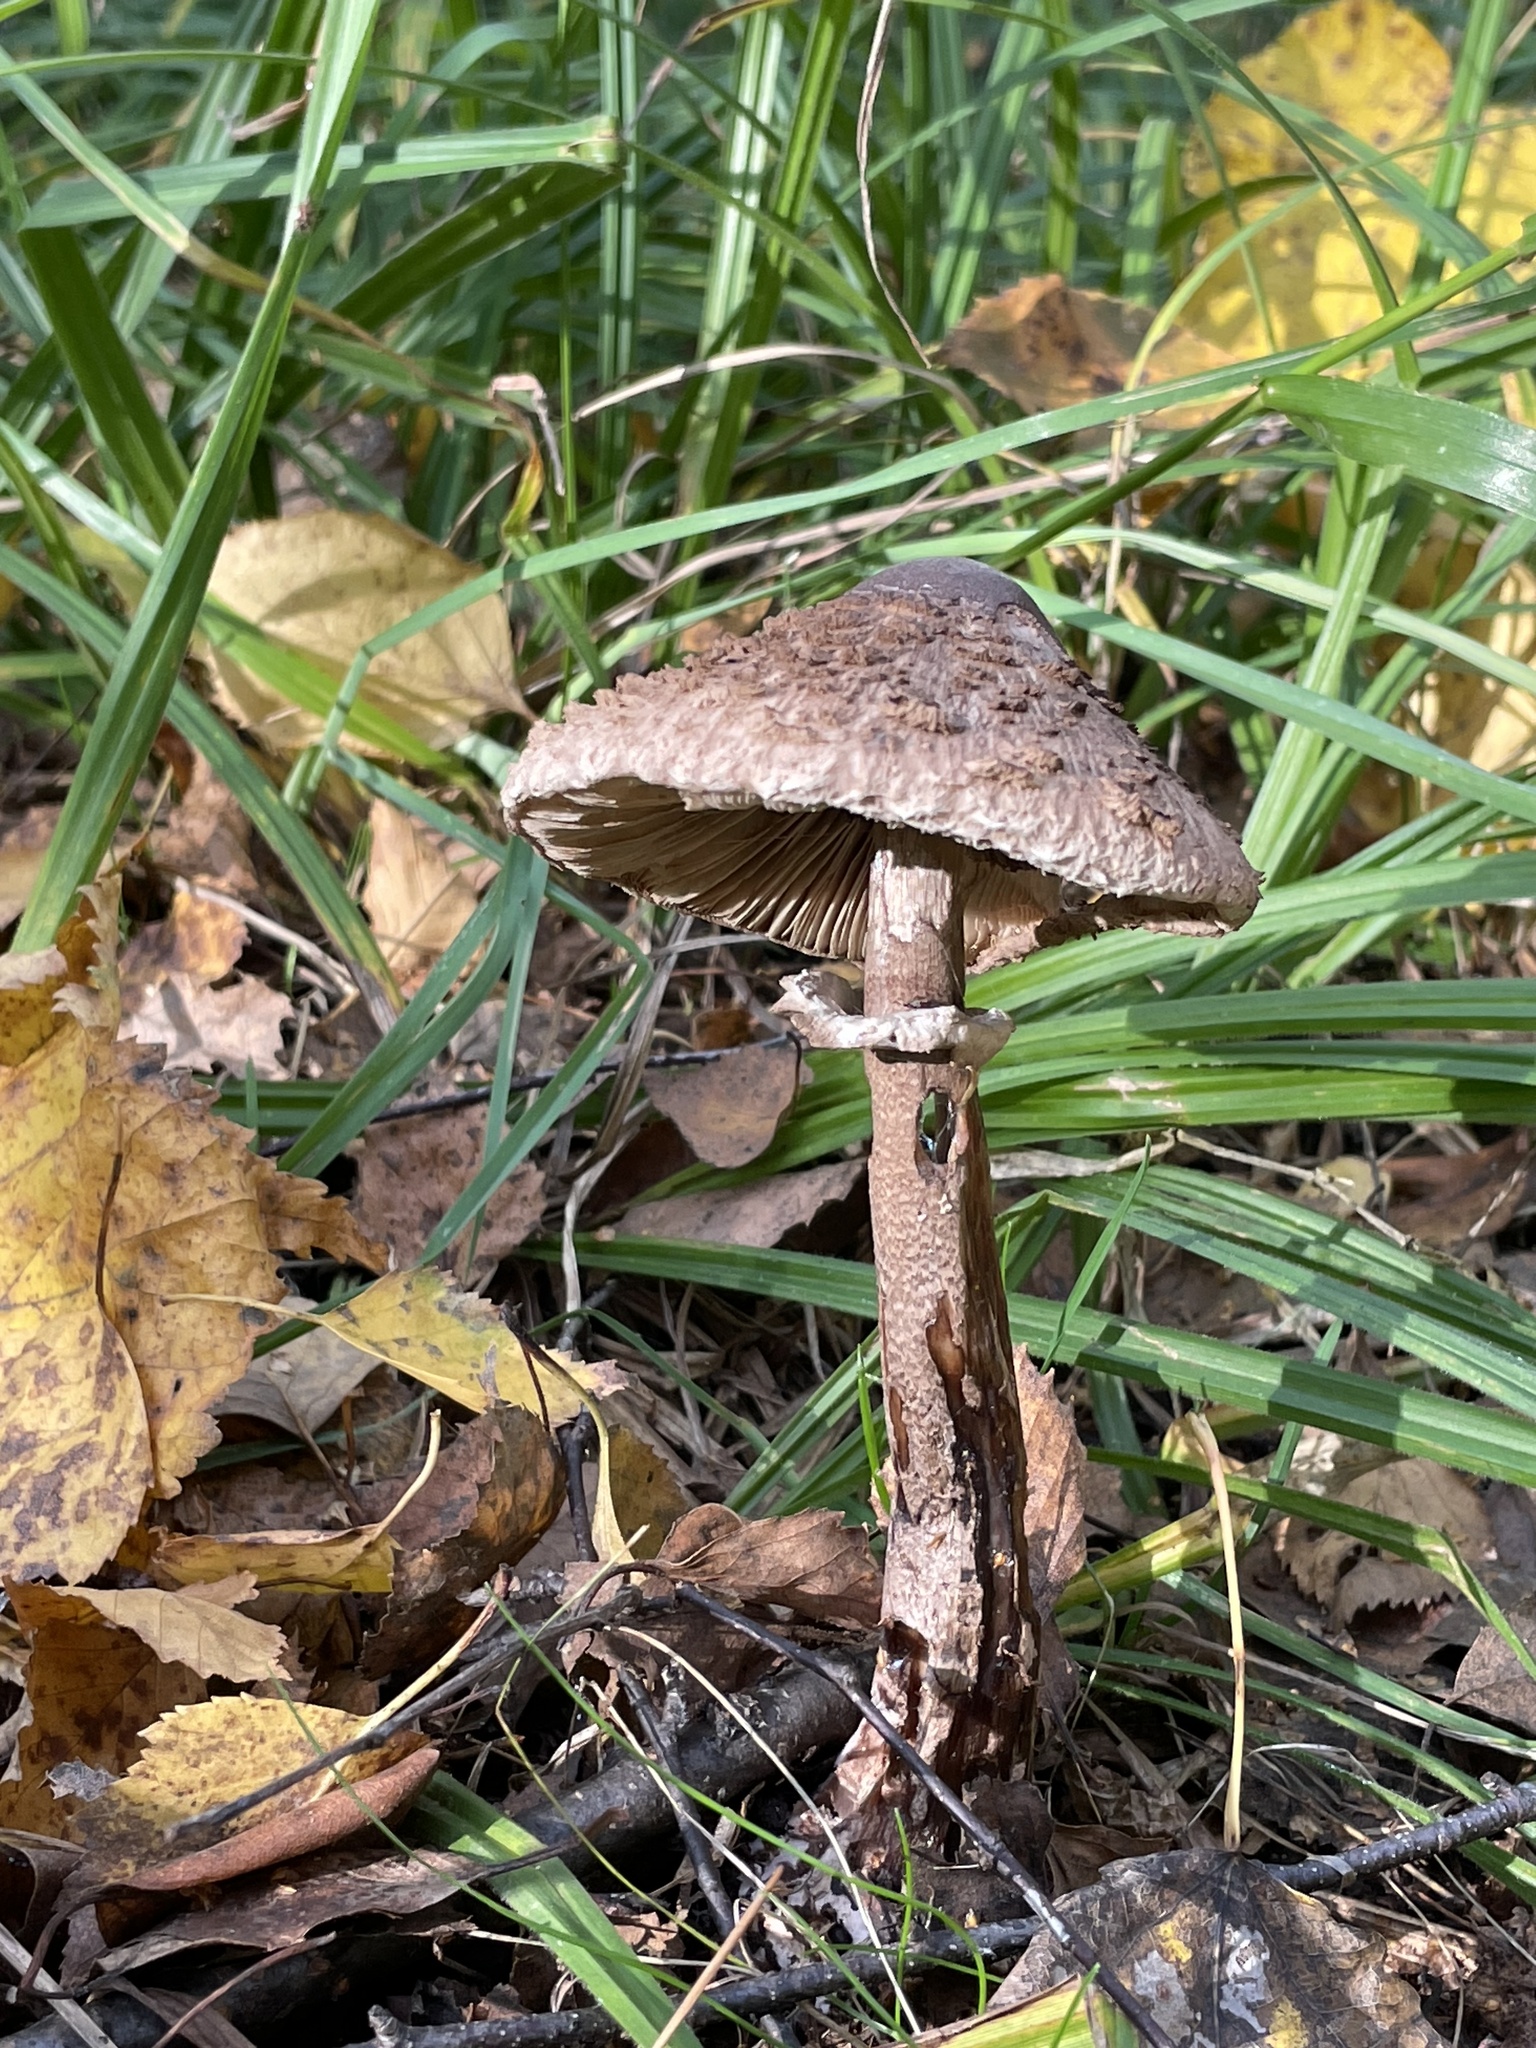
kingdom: Fungi
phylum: Basidiomycota
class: Agaricomycetes
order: Agaricales
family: Agaricaceae
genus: Macrolepiota
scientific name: Macrolepiota procera
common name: Parasol
